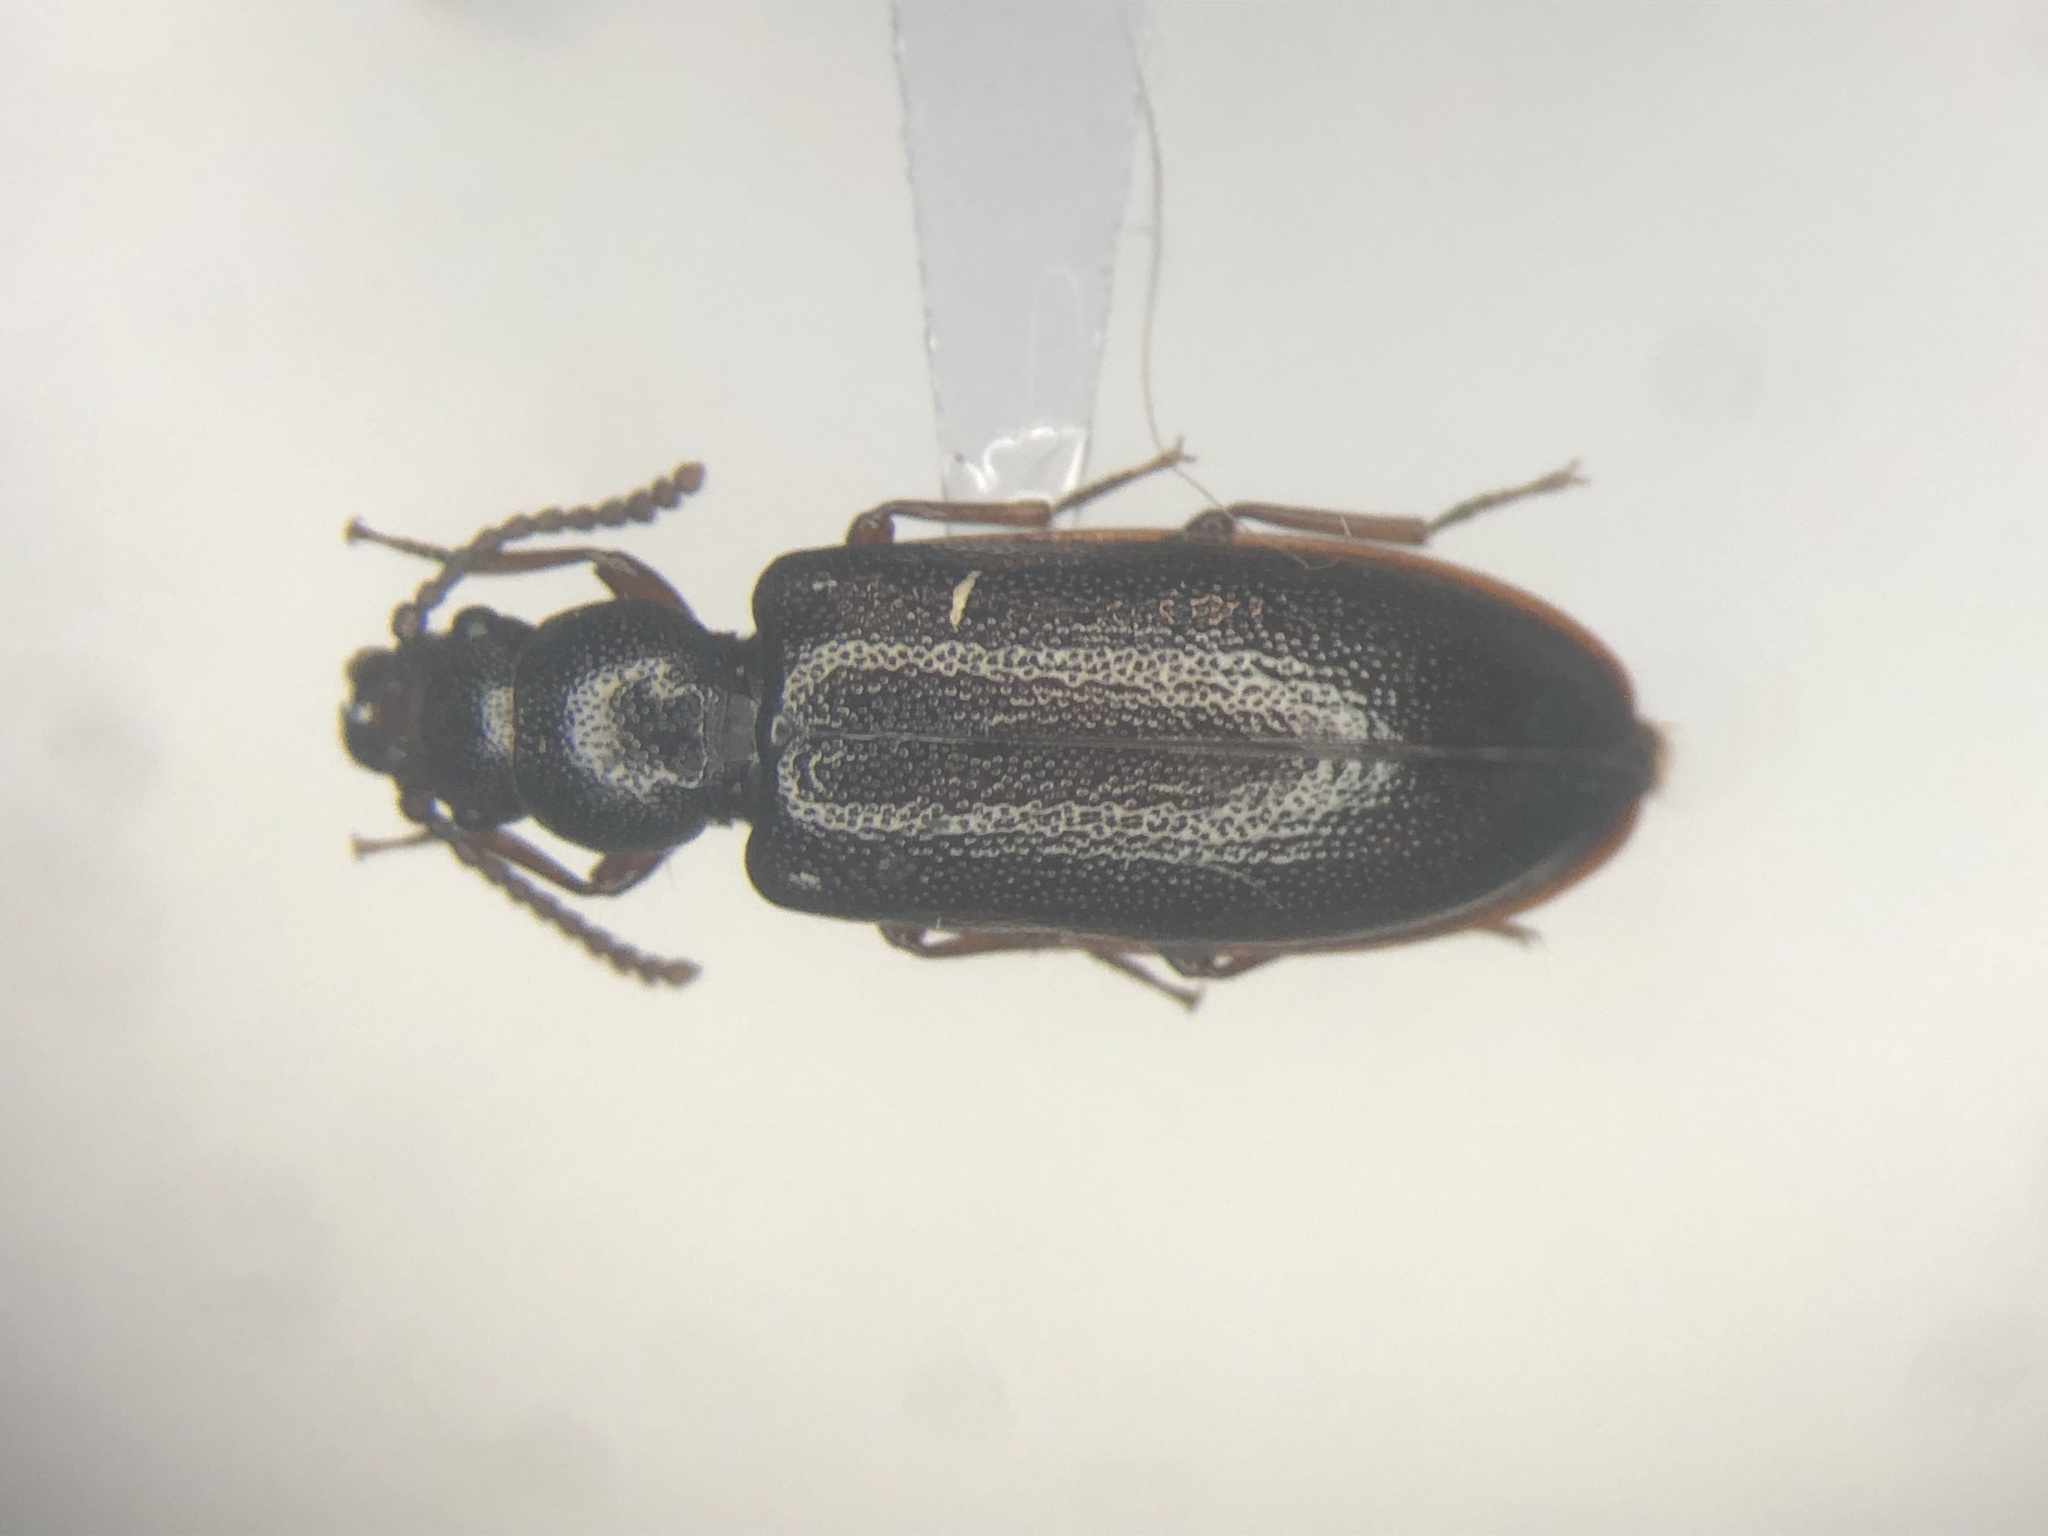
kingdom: Animalia
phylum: Arthropoda
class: Insecta
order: Coleoptera
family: Pythidae
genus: Priognathus
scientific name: Priognathus monilicornis
